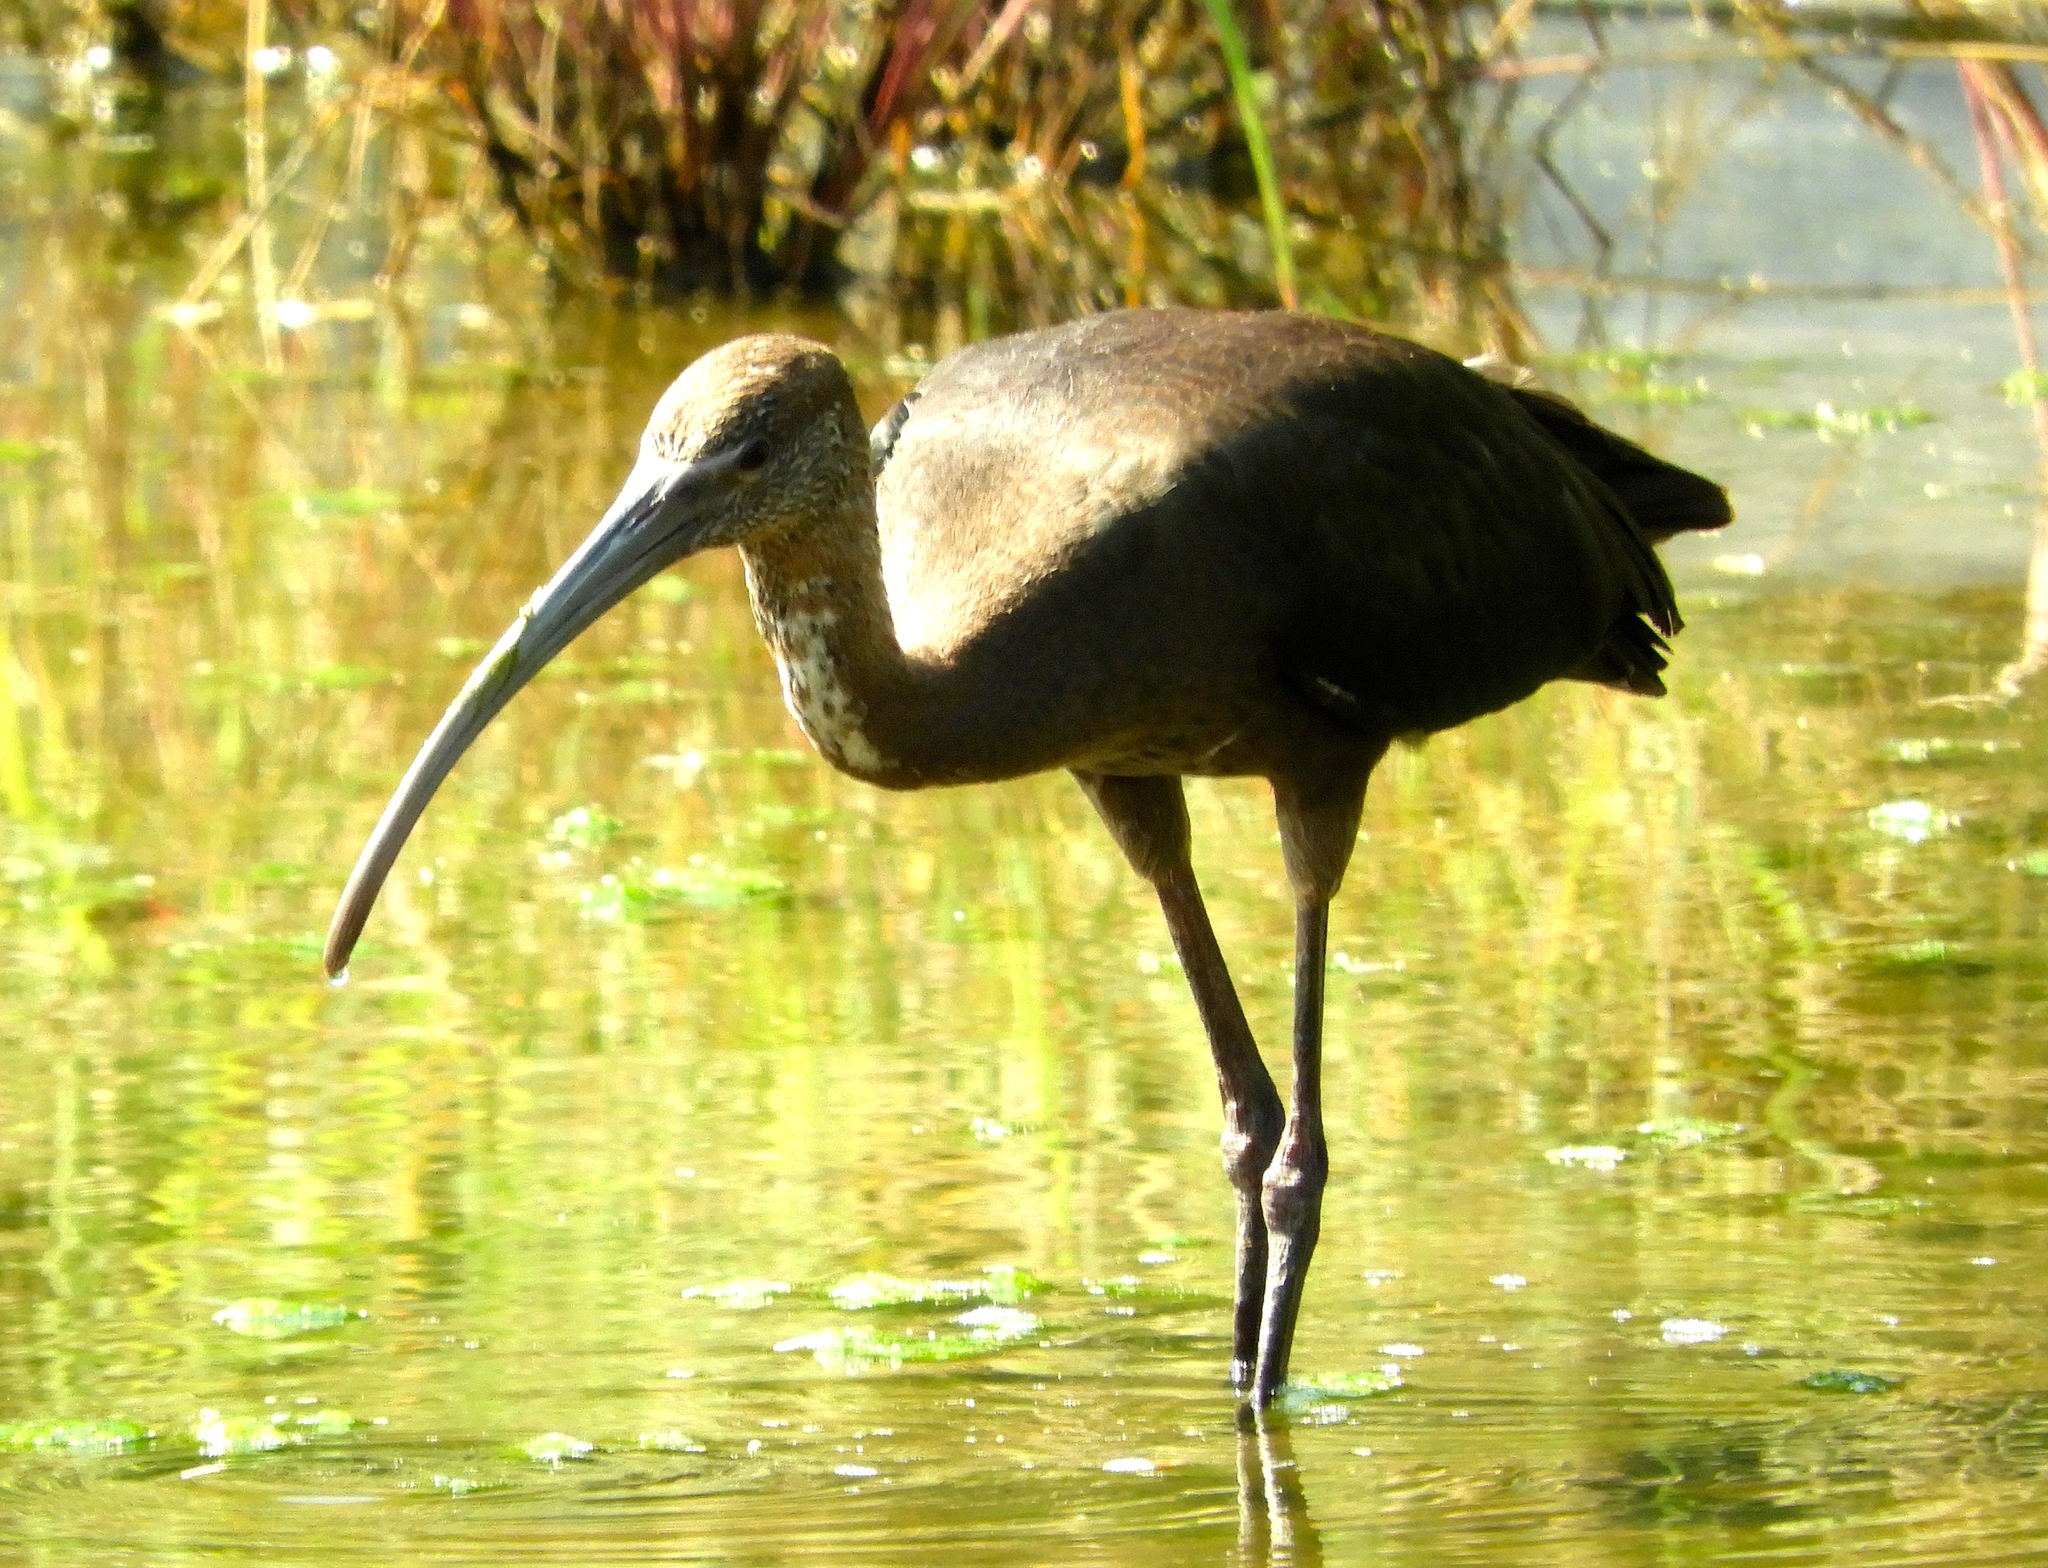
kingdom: Animalia
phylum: Chordata
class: Aves
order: Pelecaniformes
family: Threskiornithidae
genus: Plegadis
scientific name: Plegadis chihi
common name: White-faced ibis
